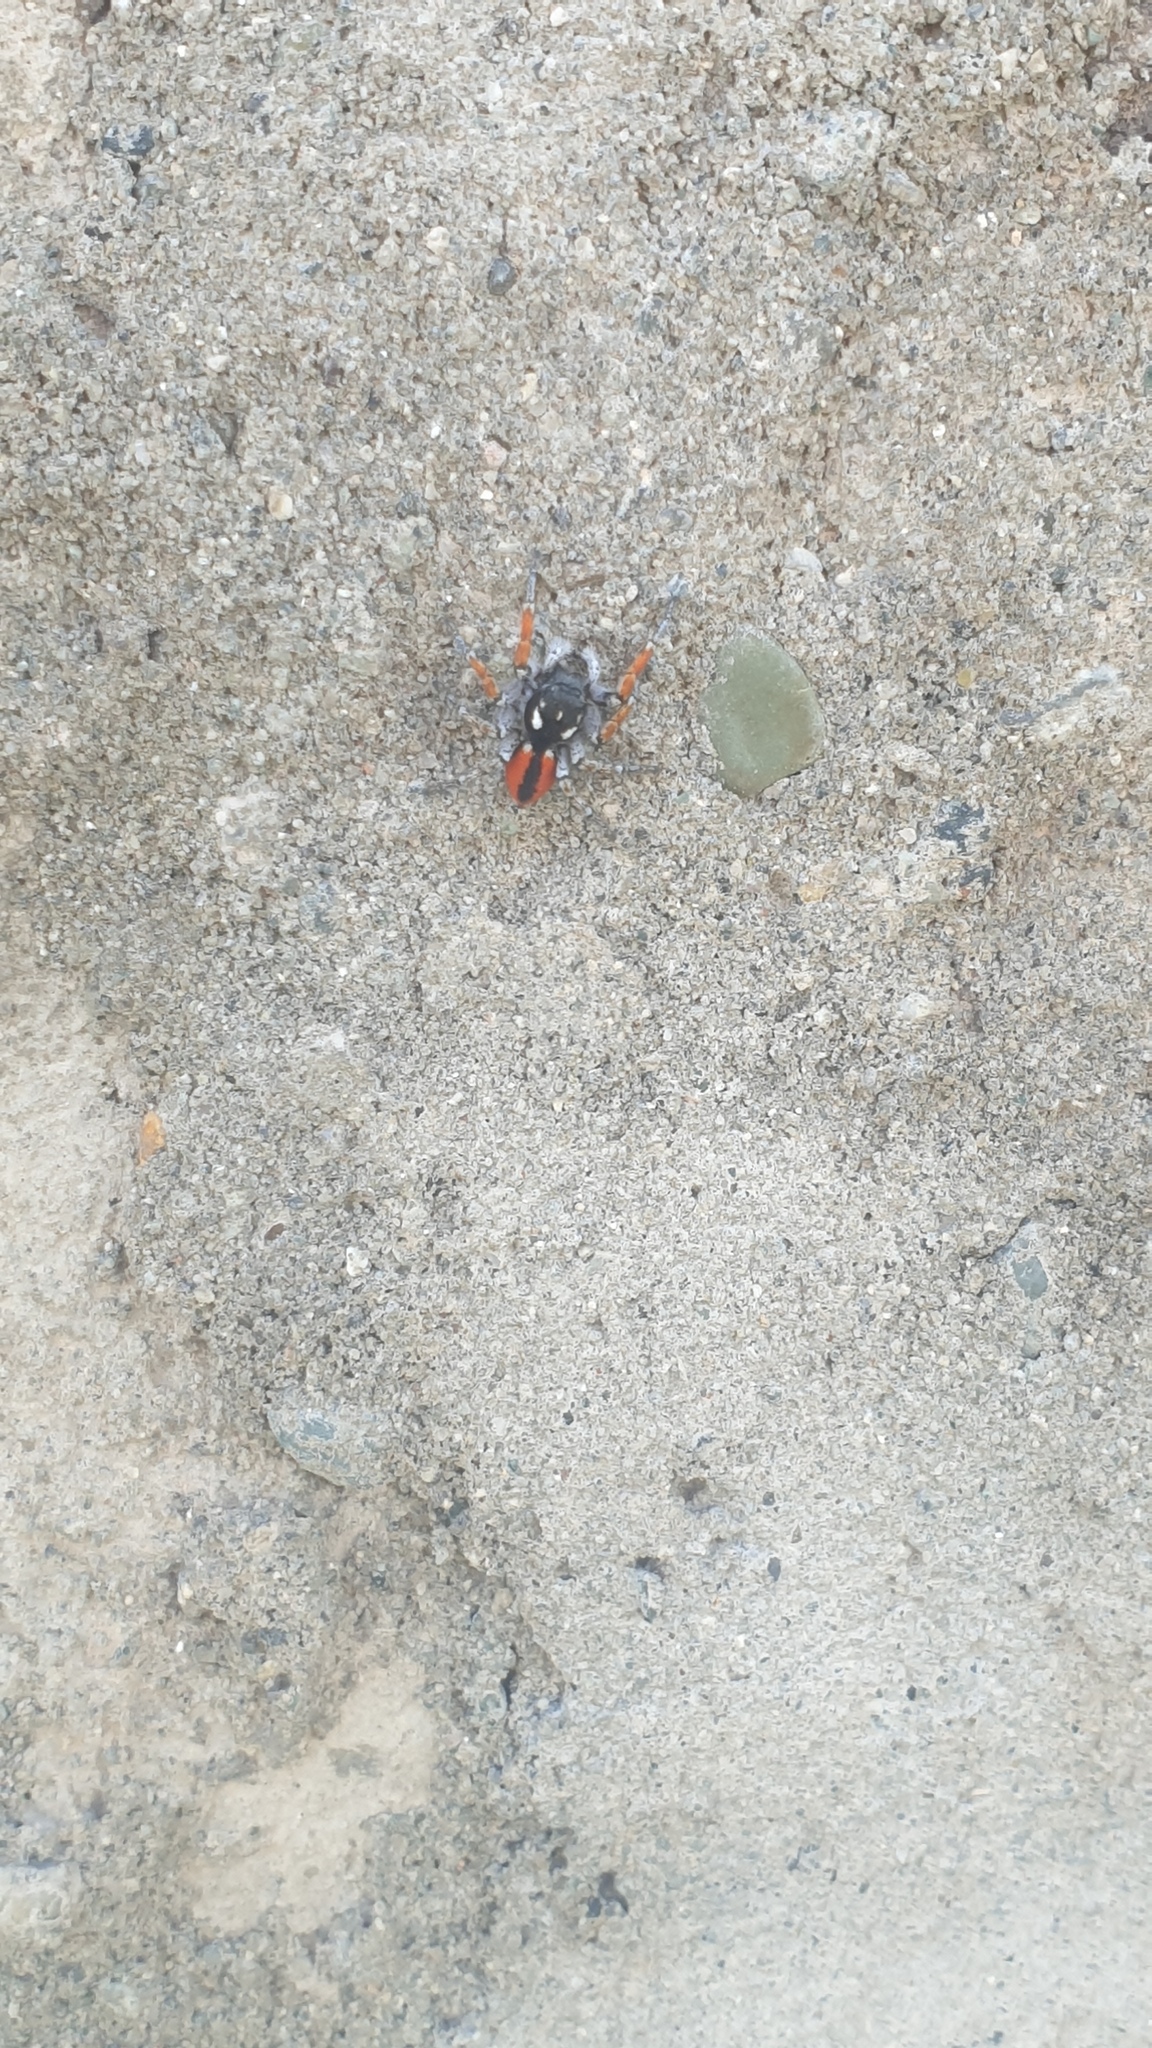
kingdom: Animalia
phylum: Arthropoda
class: Arachnida
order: Araneae
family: Salticidae
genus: Philaeus
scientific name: Philaeus chrysops
